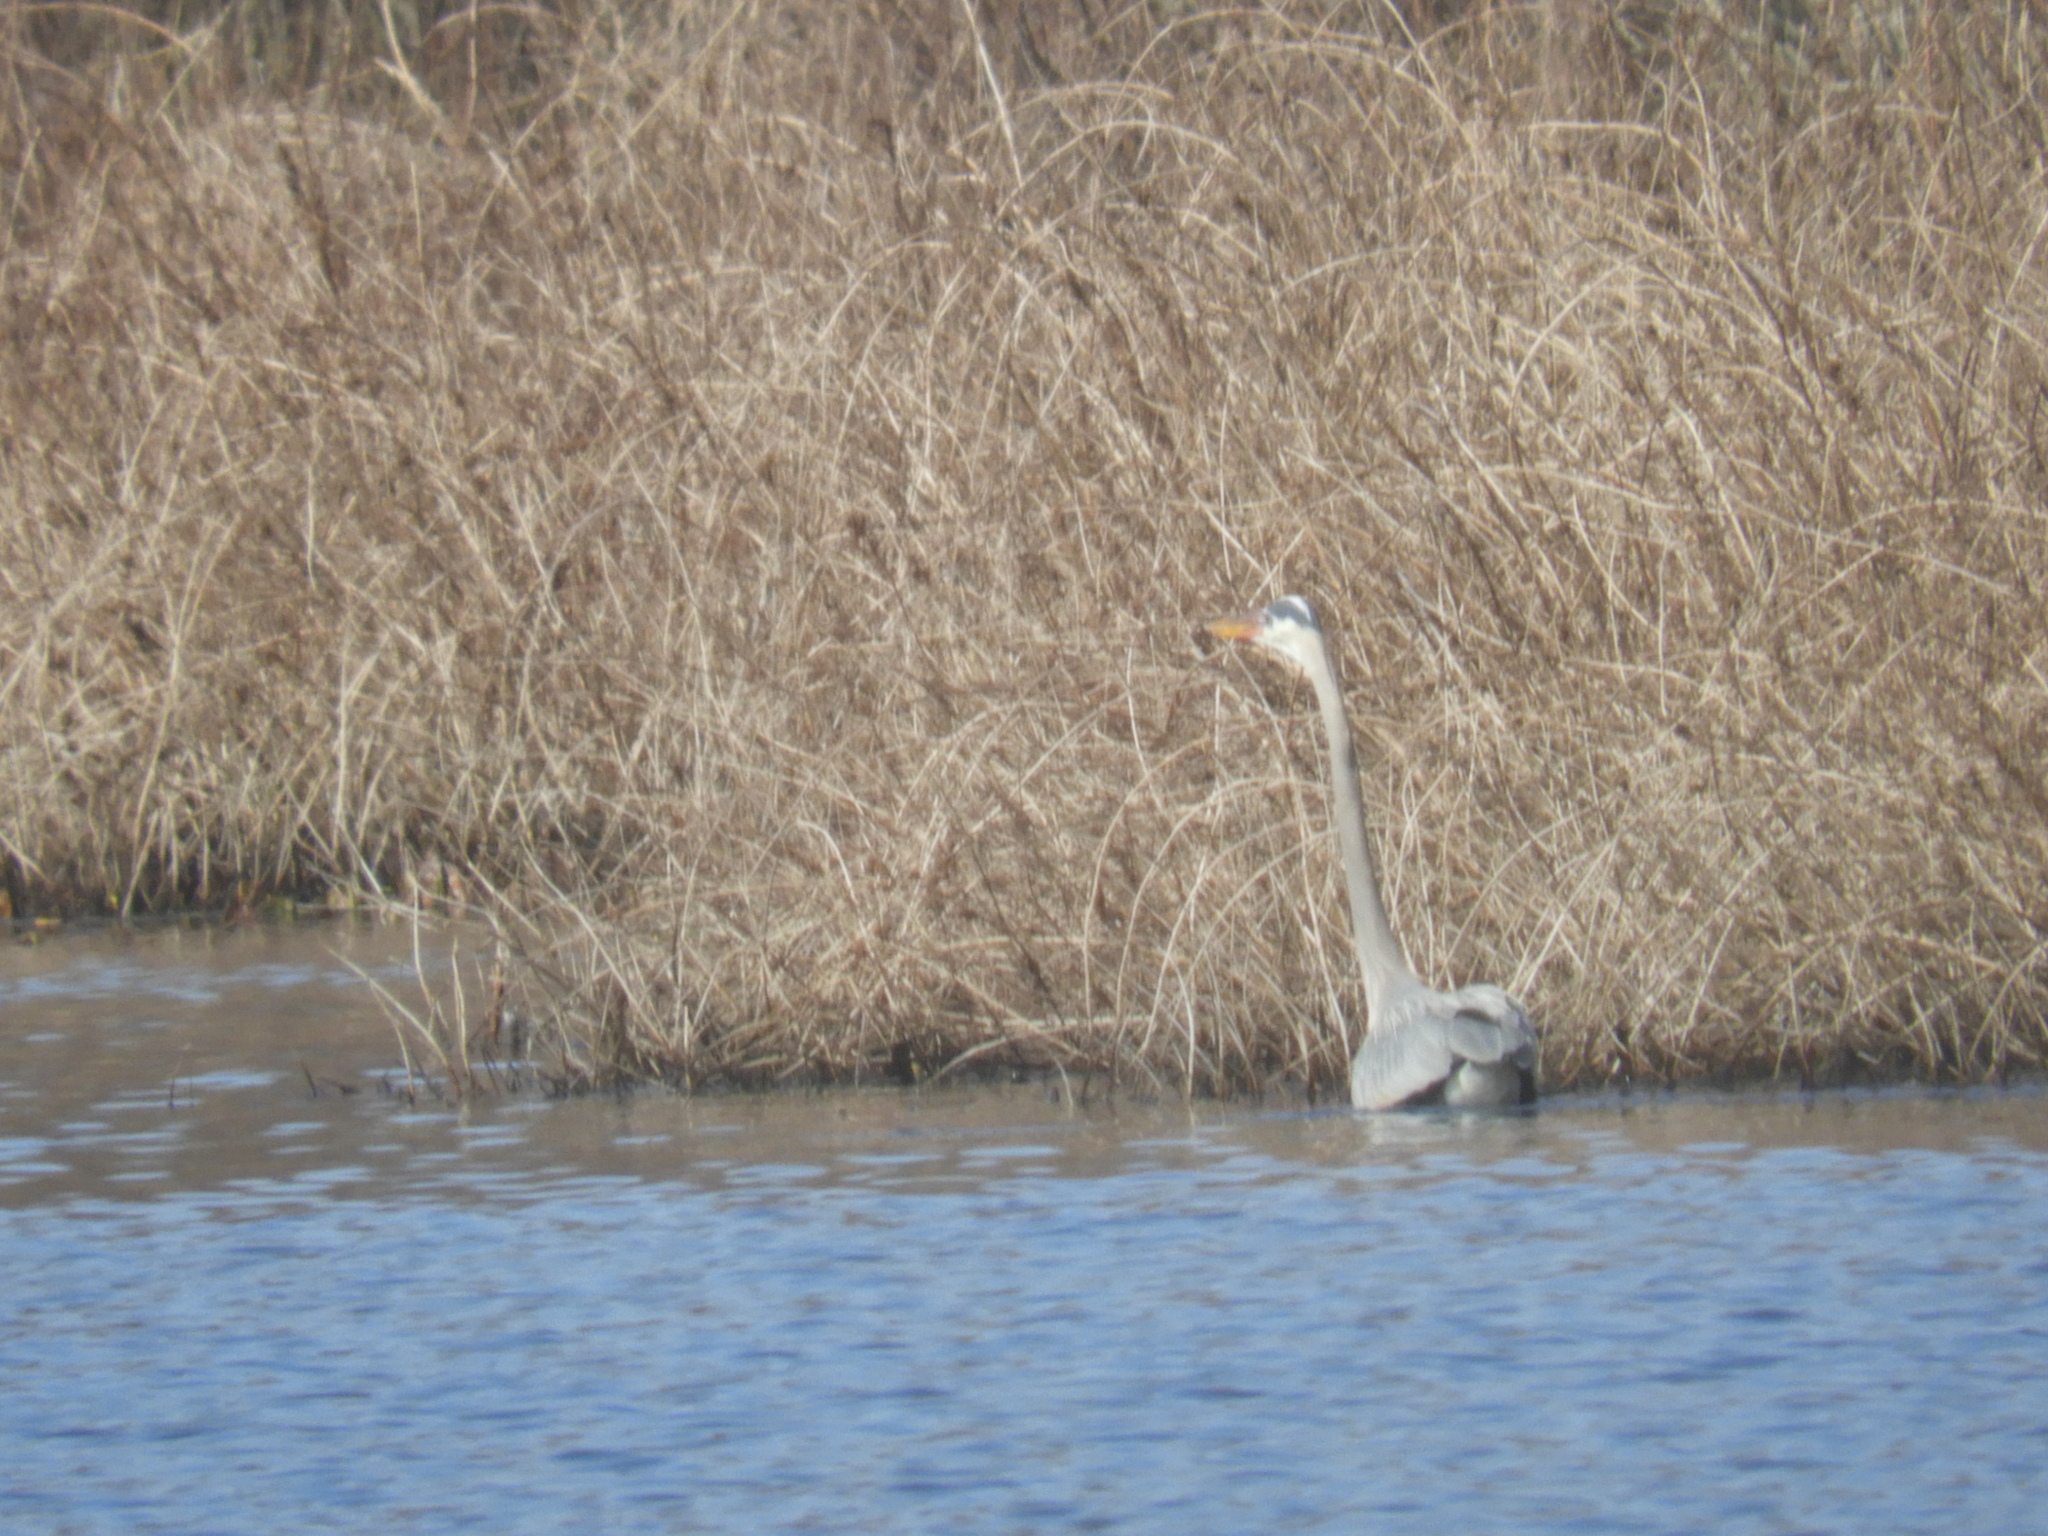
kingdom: Animalia
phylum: Chordata
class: Aves
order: Pelecaniformes
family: Ardeidae
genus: Ardea
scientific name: Ardea herodias
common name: Great blue heron
